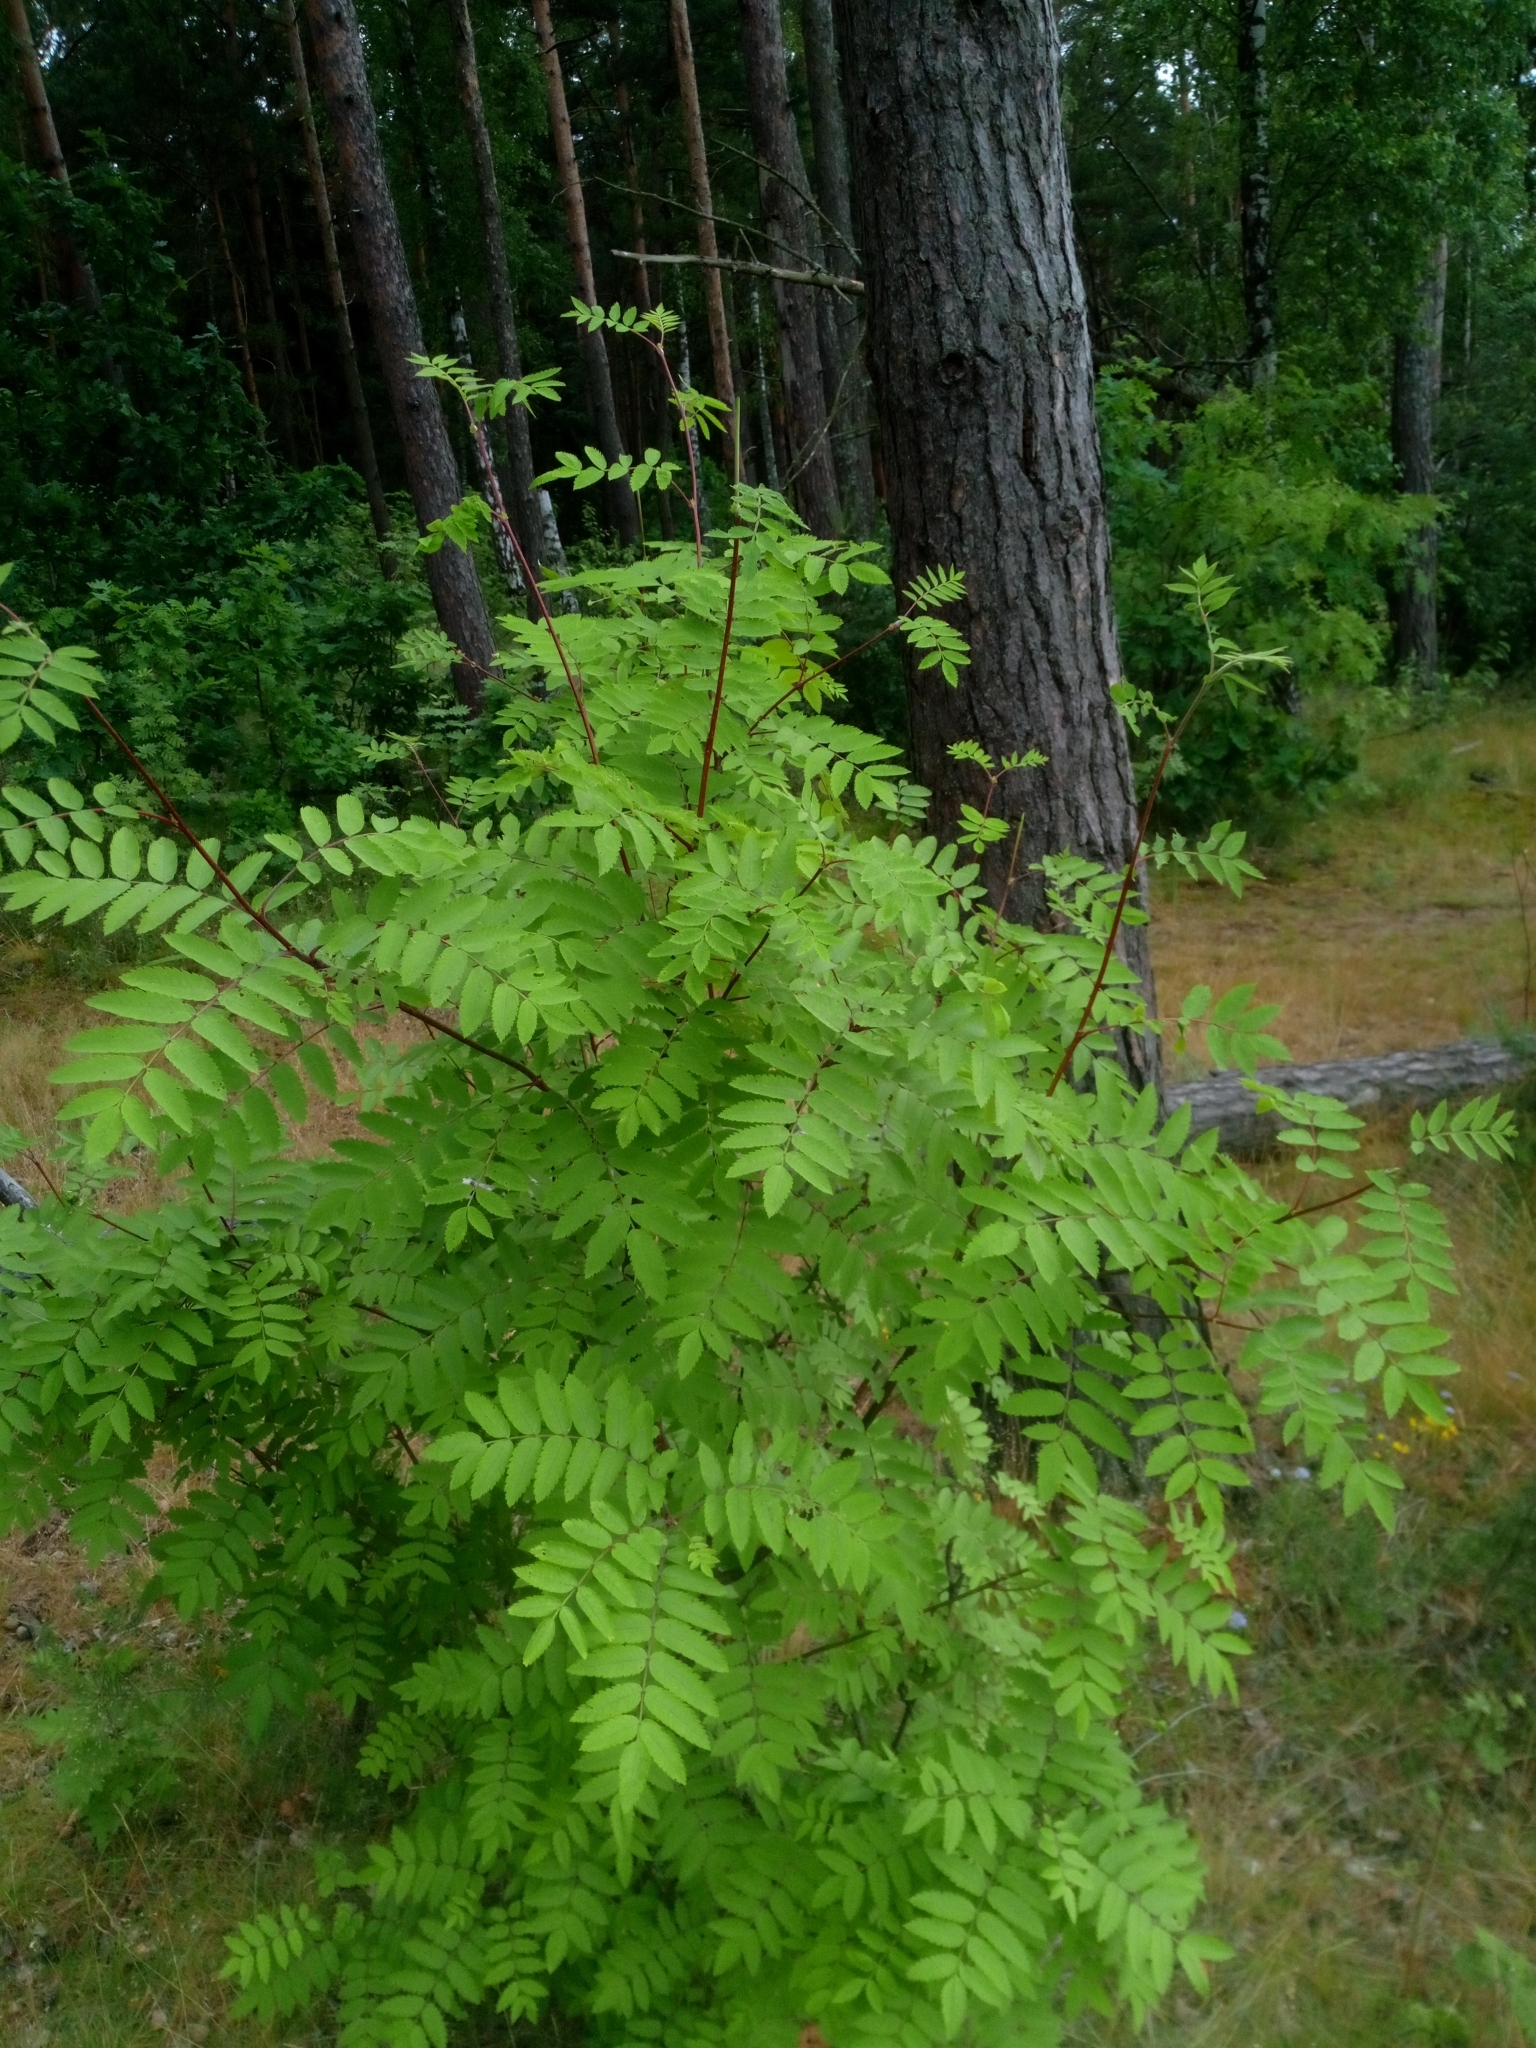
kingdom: Plantae
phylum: Tracheophyta
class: Magnoliopsida
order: Rosales
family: Rosaceae
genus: Sorbus
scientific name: Sorbus aucuparia
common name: Rowan
